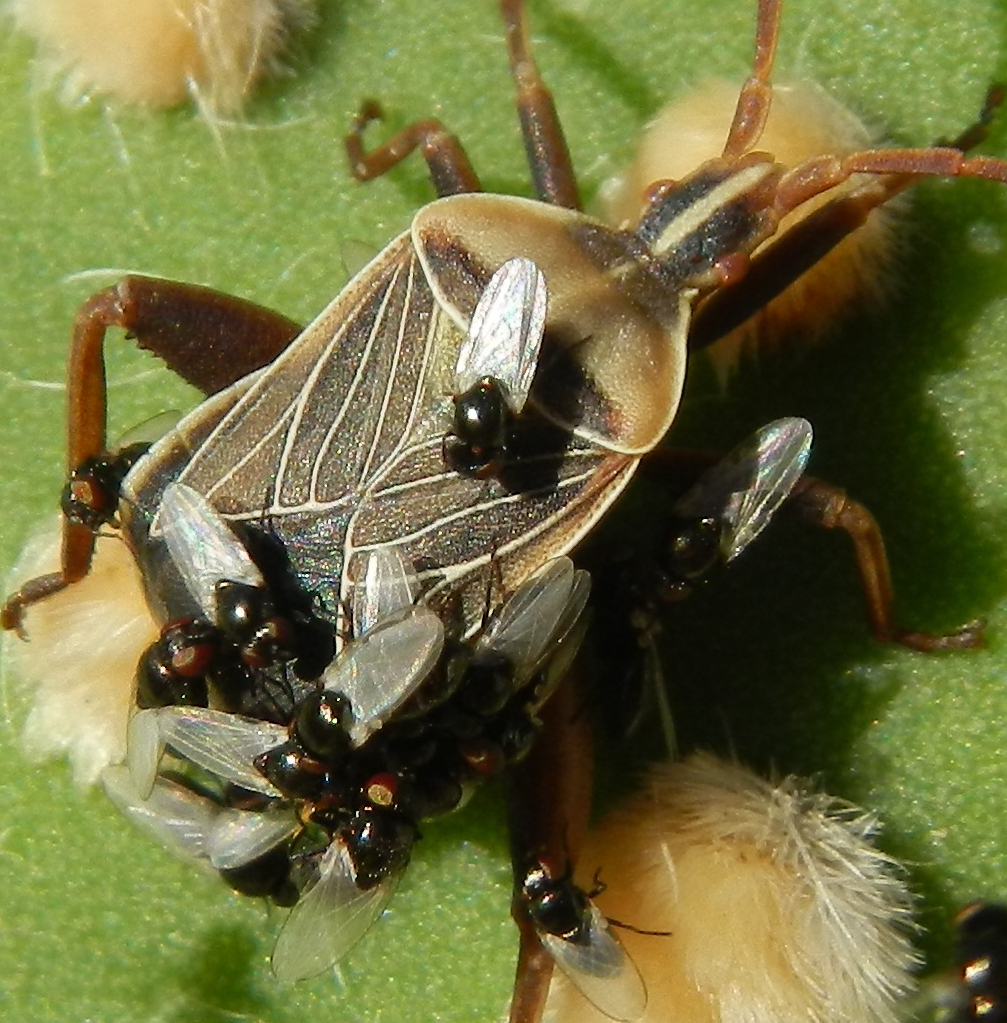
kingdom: Animalia
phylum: Arthropoda
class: Insecta
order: Hemiptera
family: Coreidae
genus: Chelinidea
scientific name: Chelinidea vittiger
